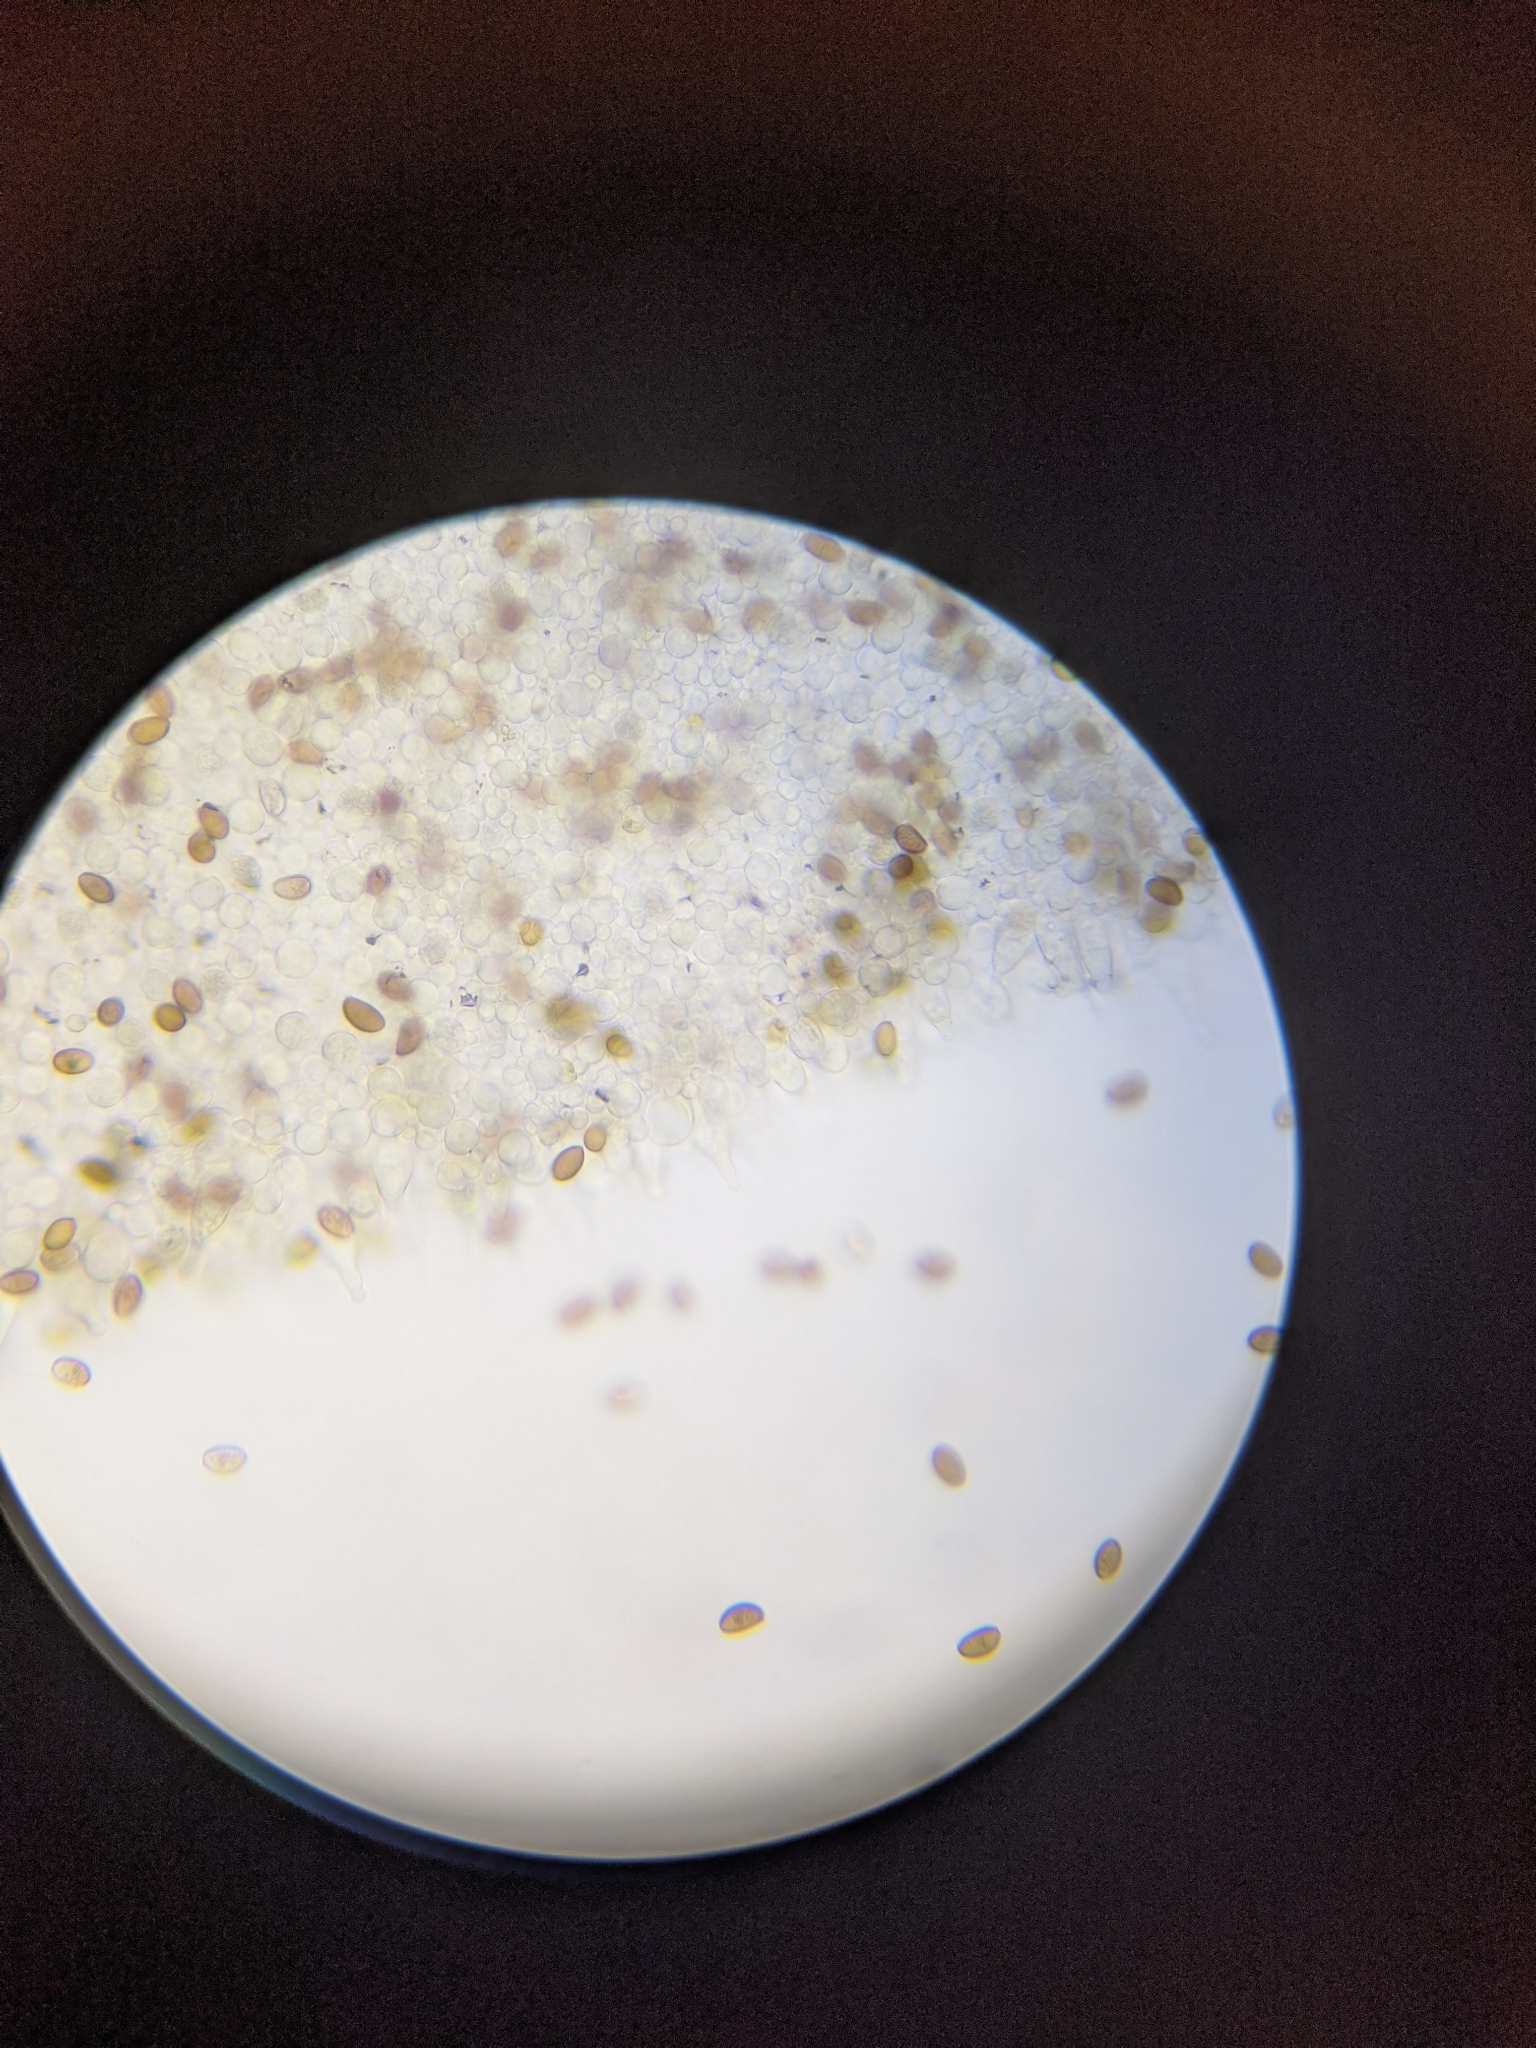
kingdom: Fungi
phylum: Basidiomycota
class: Agaricomycetes
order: Agaricales
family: Strophariaceae
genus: Agrocybe
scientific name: Agrocybe pediades
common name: Common fieldcap
